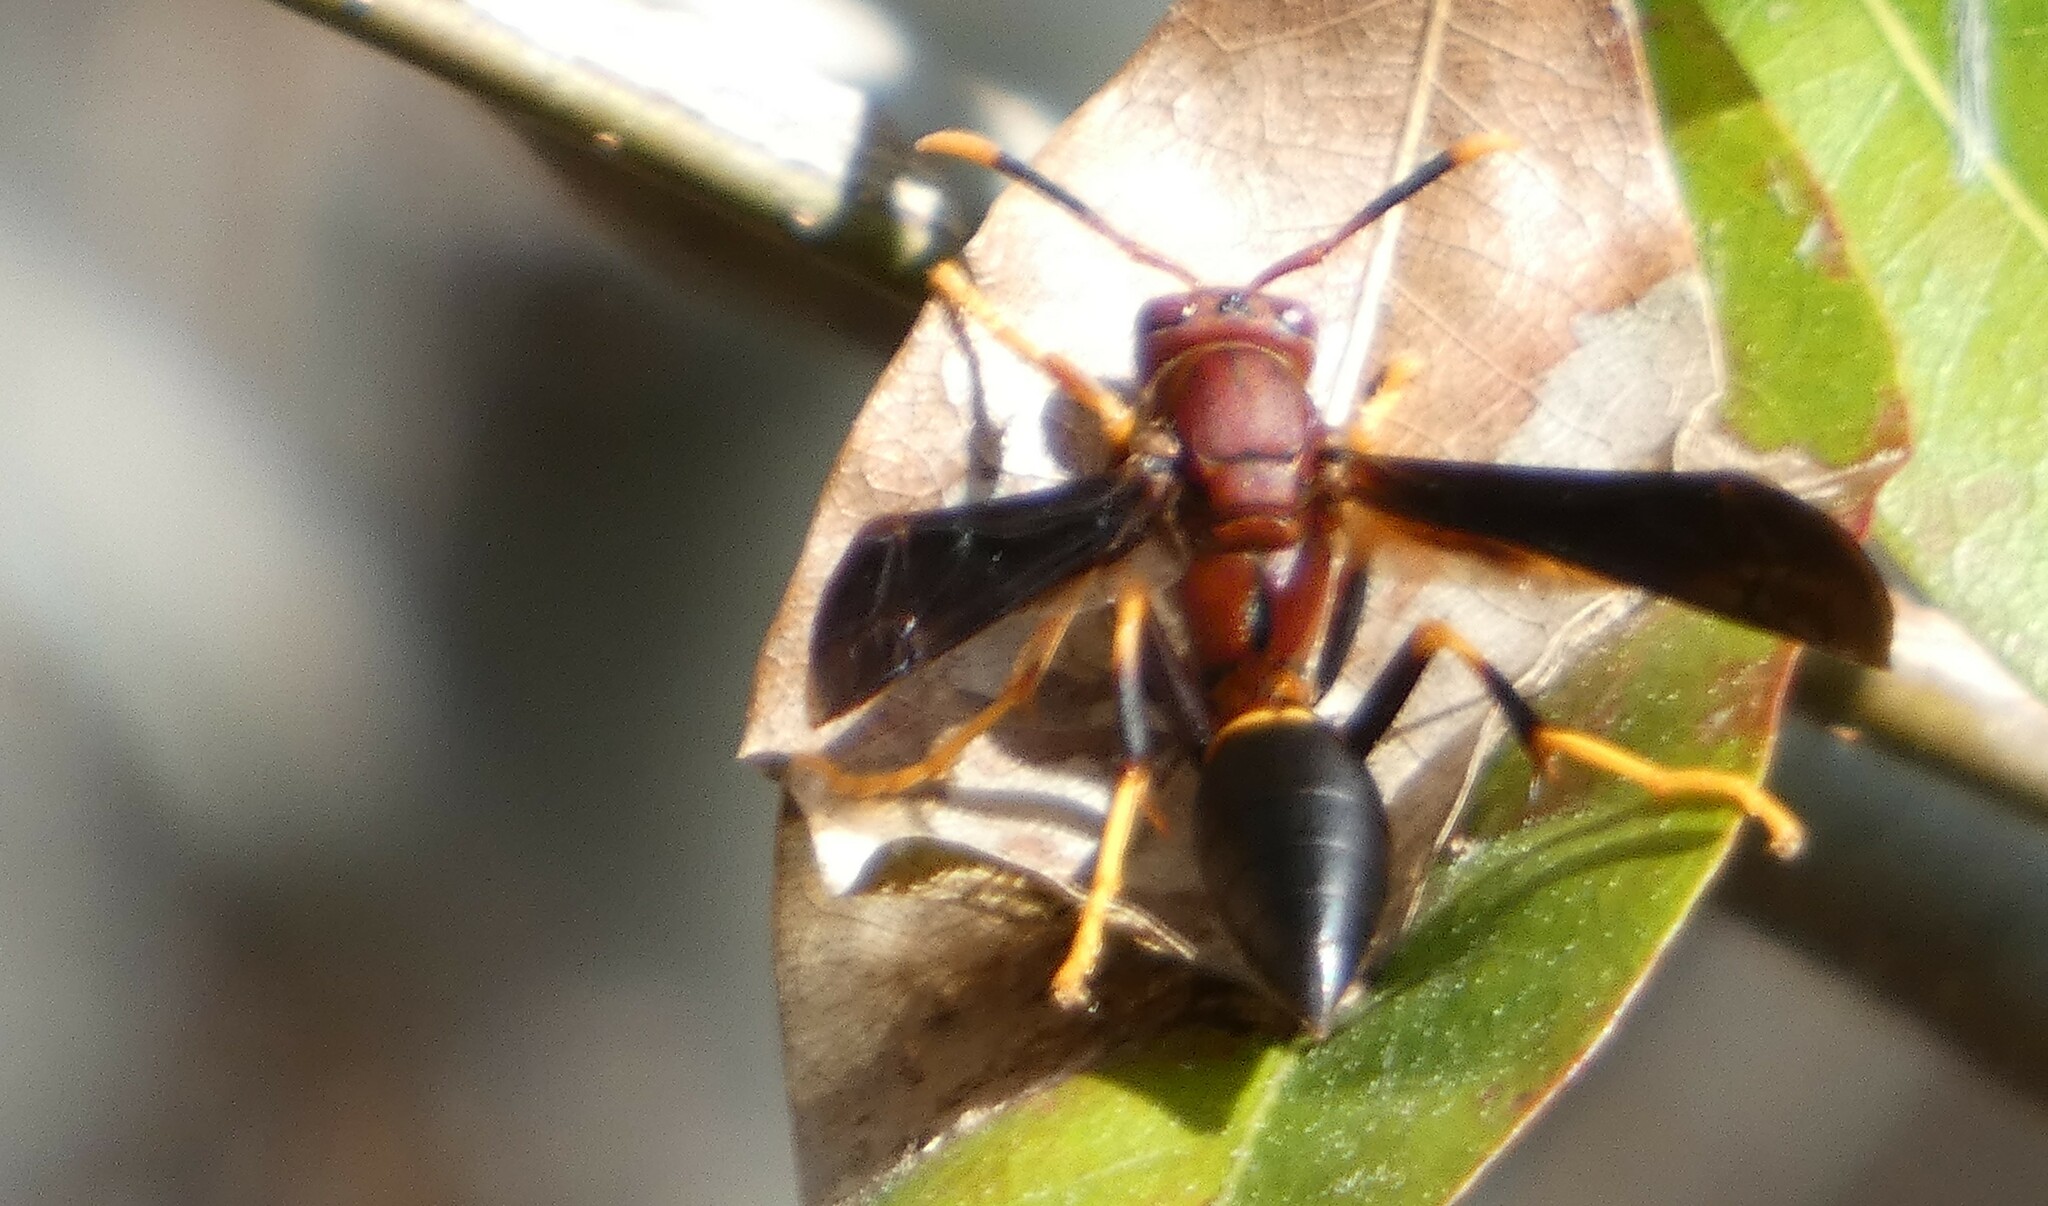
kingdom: Animalia
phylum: Arthropoda
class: Insecta
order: Hymenoptera
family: Eumenidae
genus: Polistes
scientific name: Polistes annularis
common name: Ringed paper wasp
